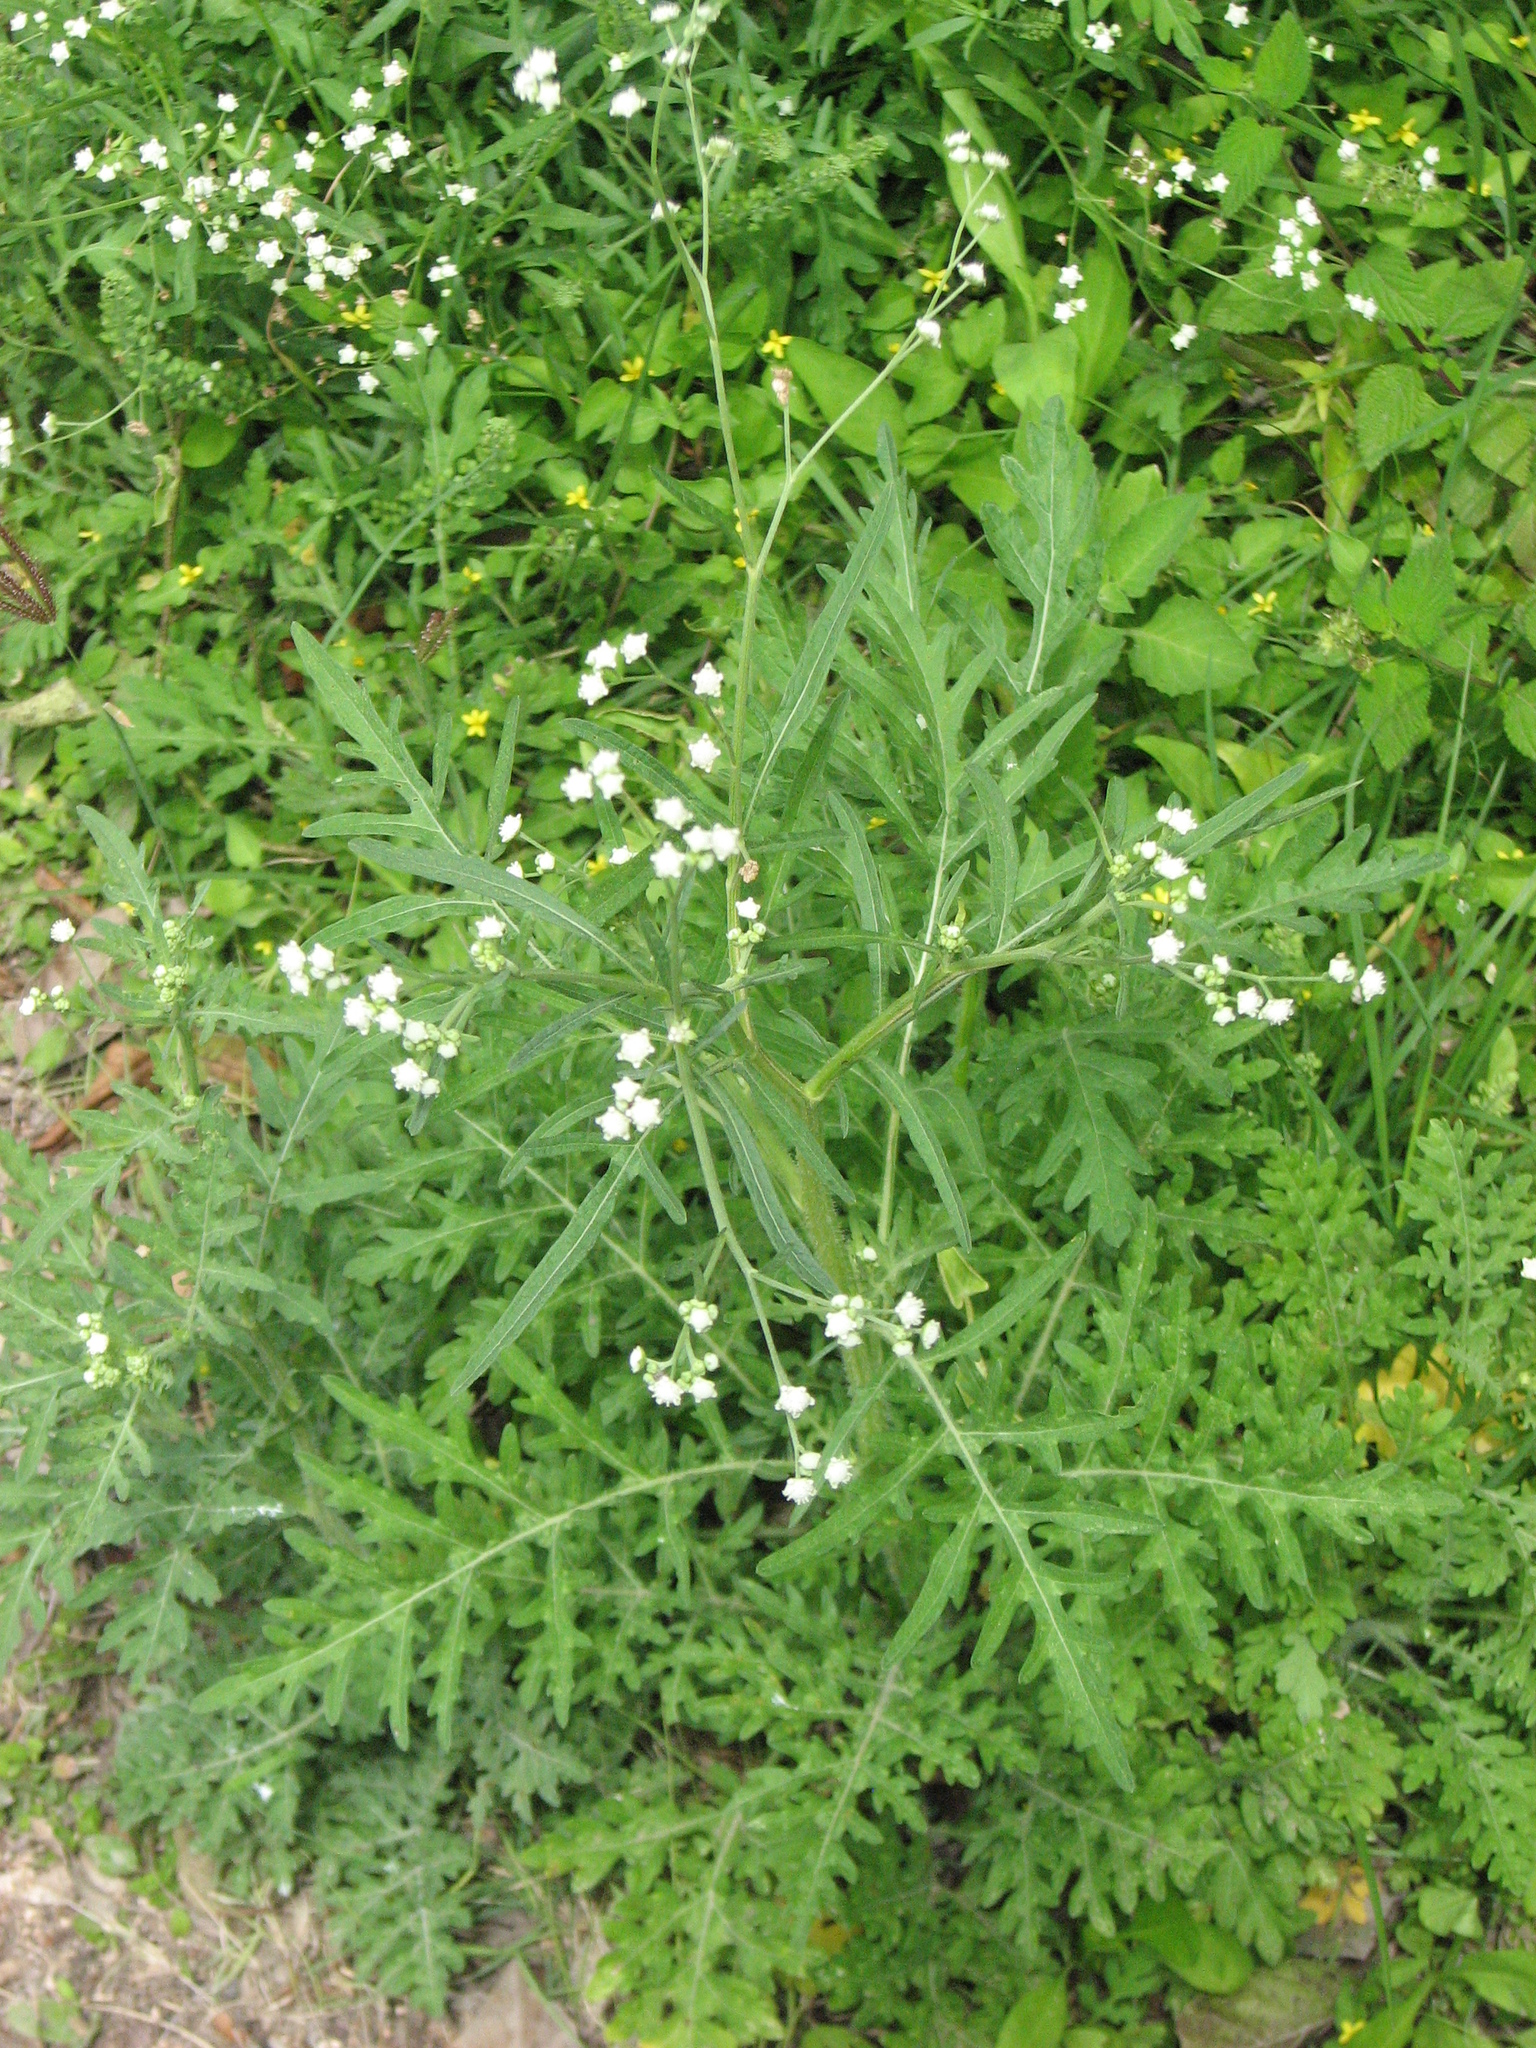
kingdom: Plantae
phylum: Tracheophyta
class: Magnoliopsida
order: Asterales
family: Asteraceae
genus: Parthenium
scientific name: Parthenium hysterophorus
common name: Santa maria feverfew
